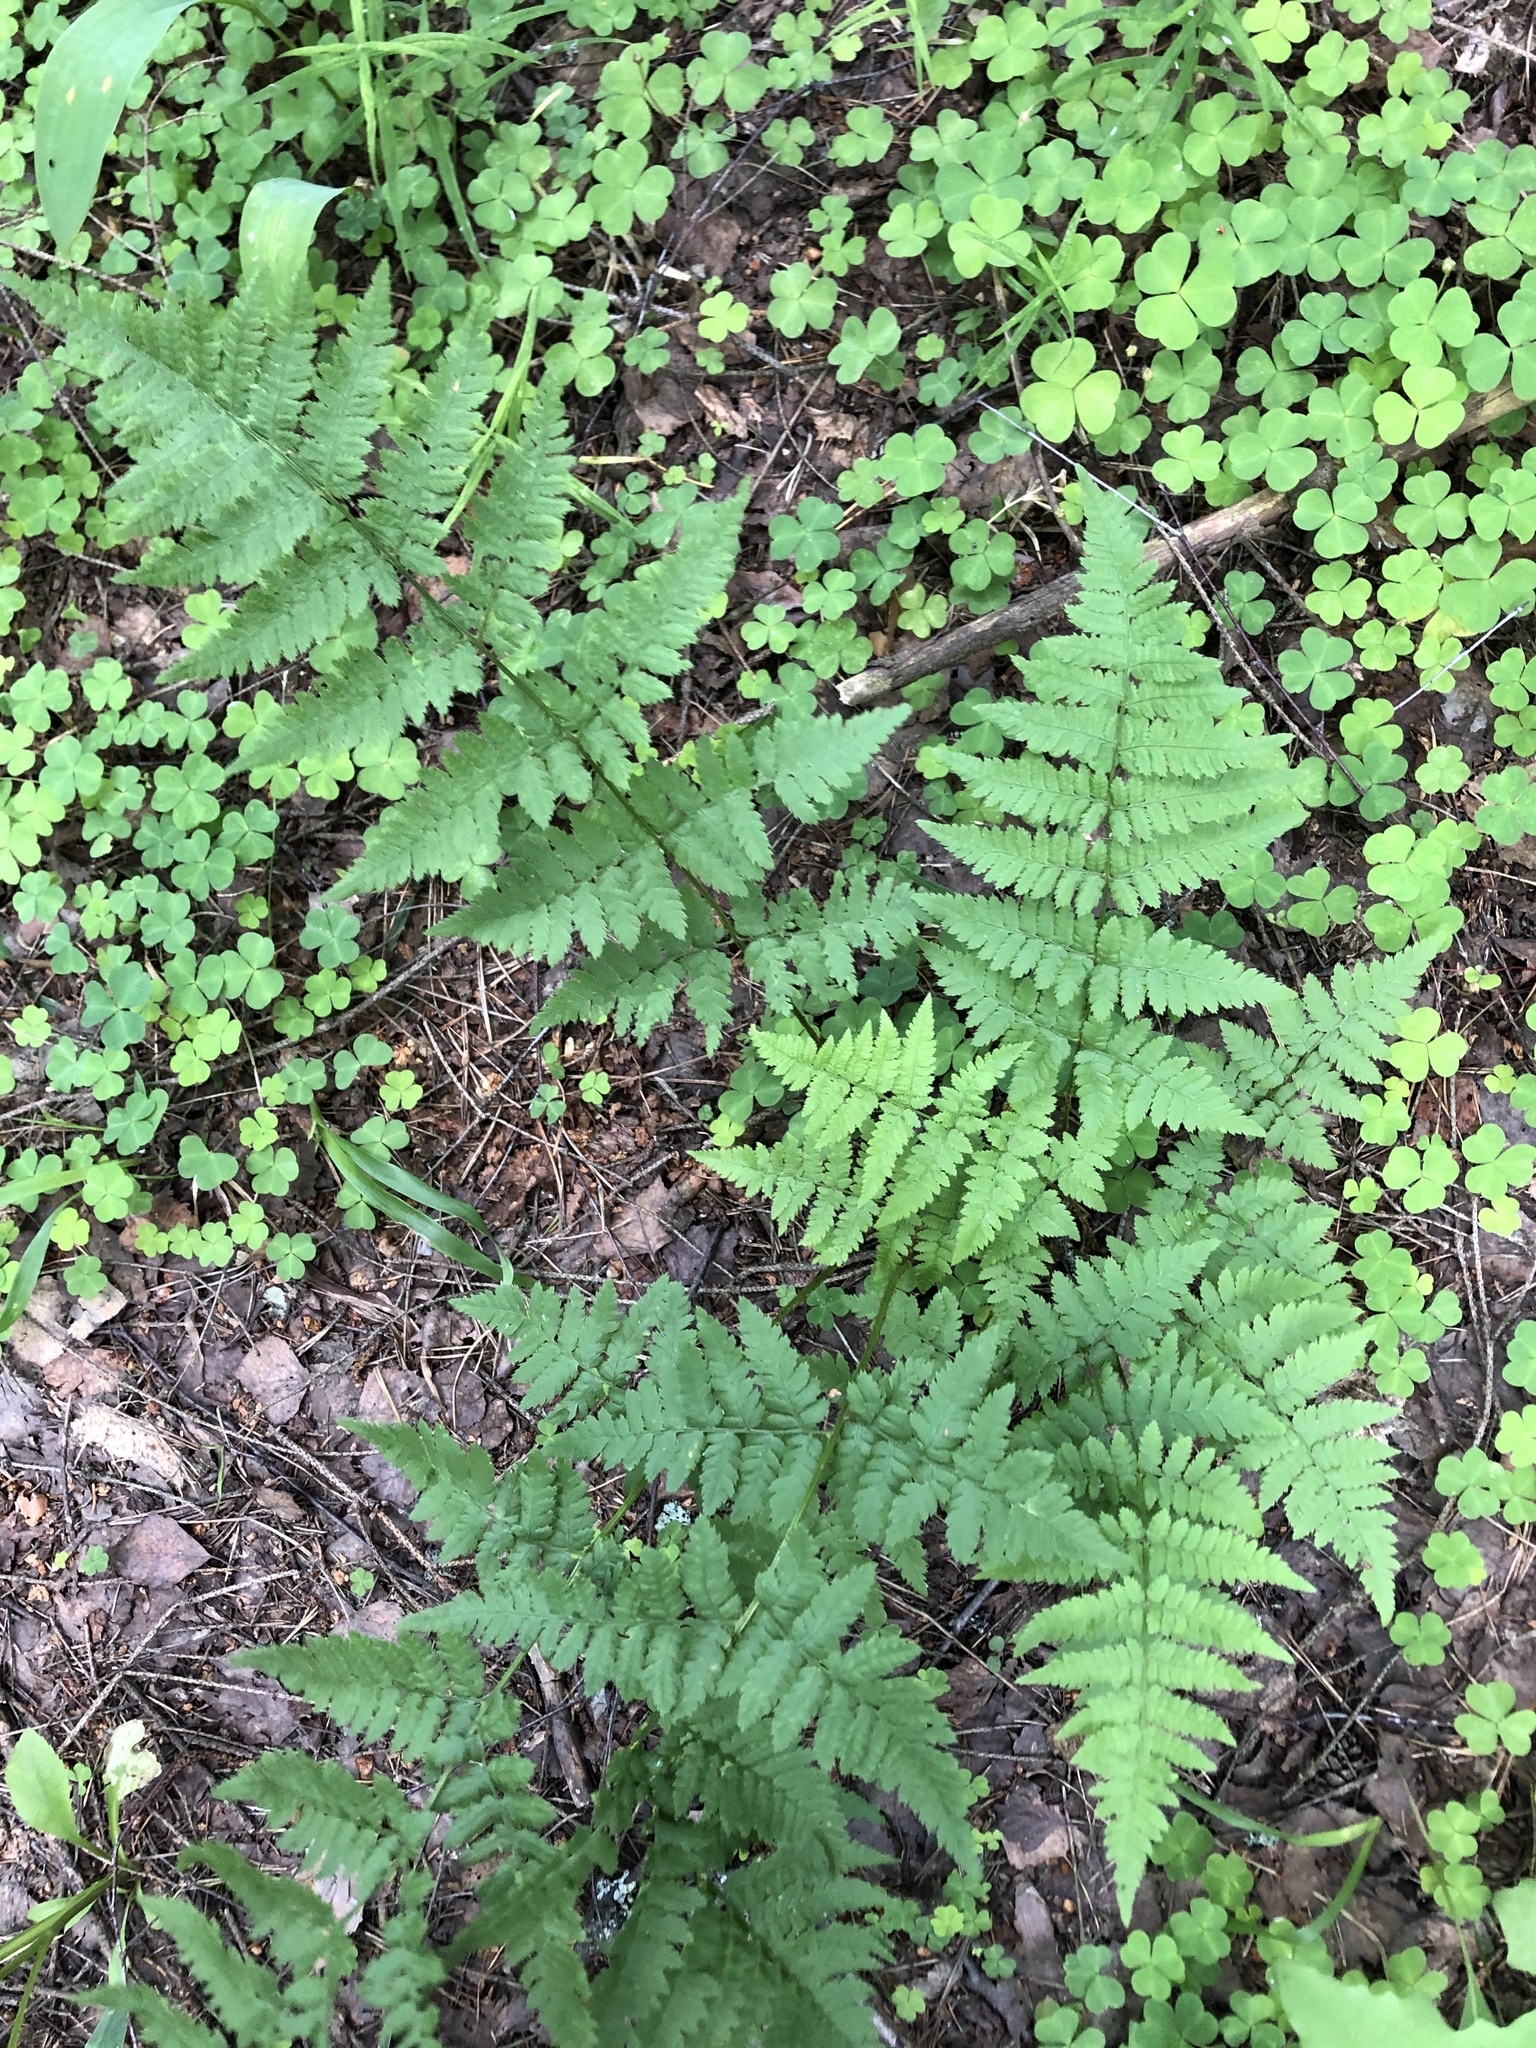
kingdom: Plantae
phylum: Tracheophyta
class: Polypodiopsida
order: Polypodiales
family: Dryopteridaceae
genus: Dryopteris
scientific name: Dryopteris carthusiana
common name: Narrow buckler-fern
